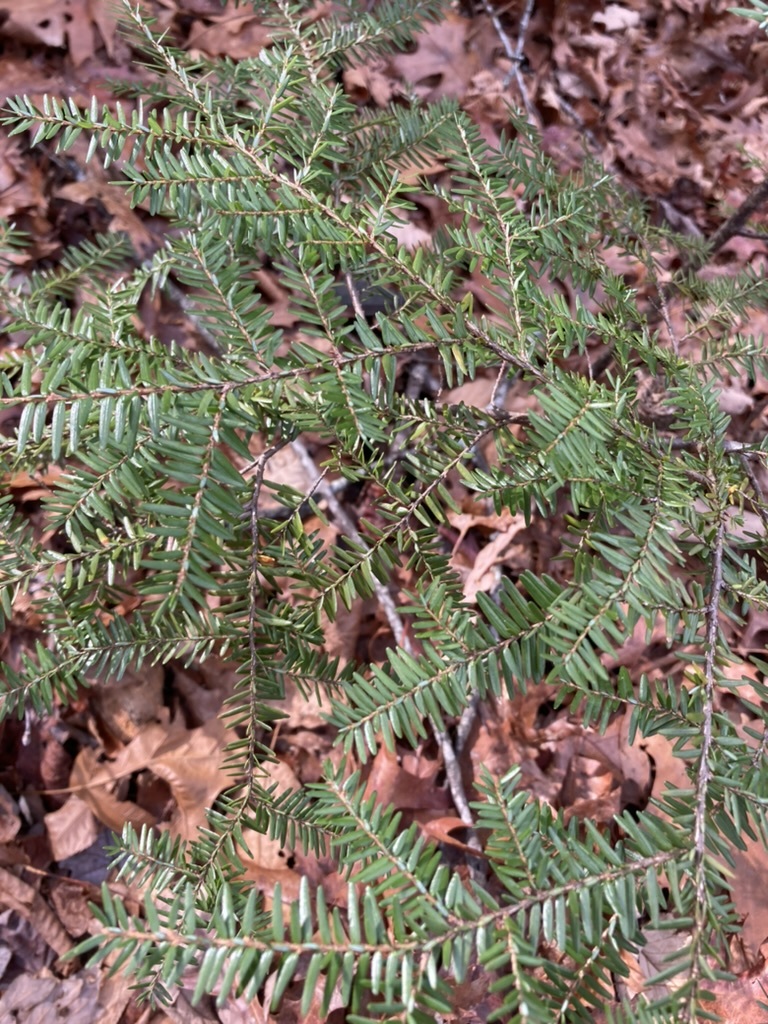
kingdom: Plantae
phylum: Tracheophyta
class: Pinopsida
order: Pinales
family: Pinaceae
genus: Tsuga
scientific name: Tsuga canadensis
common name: Eastern hemlock
